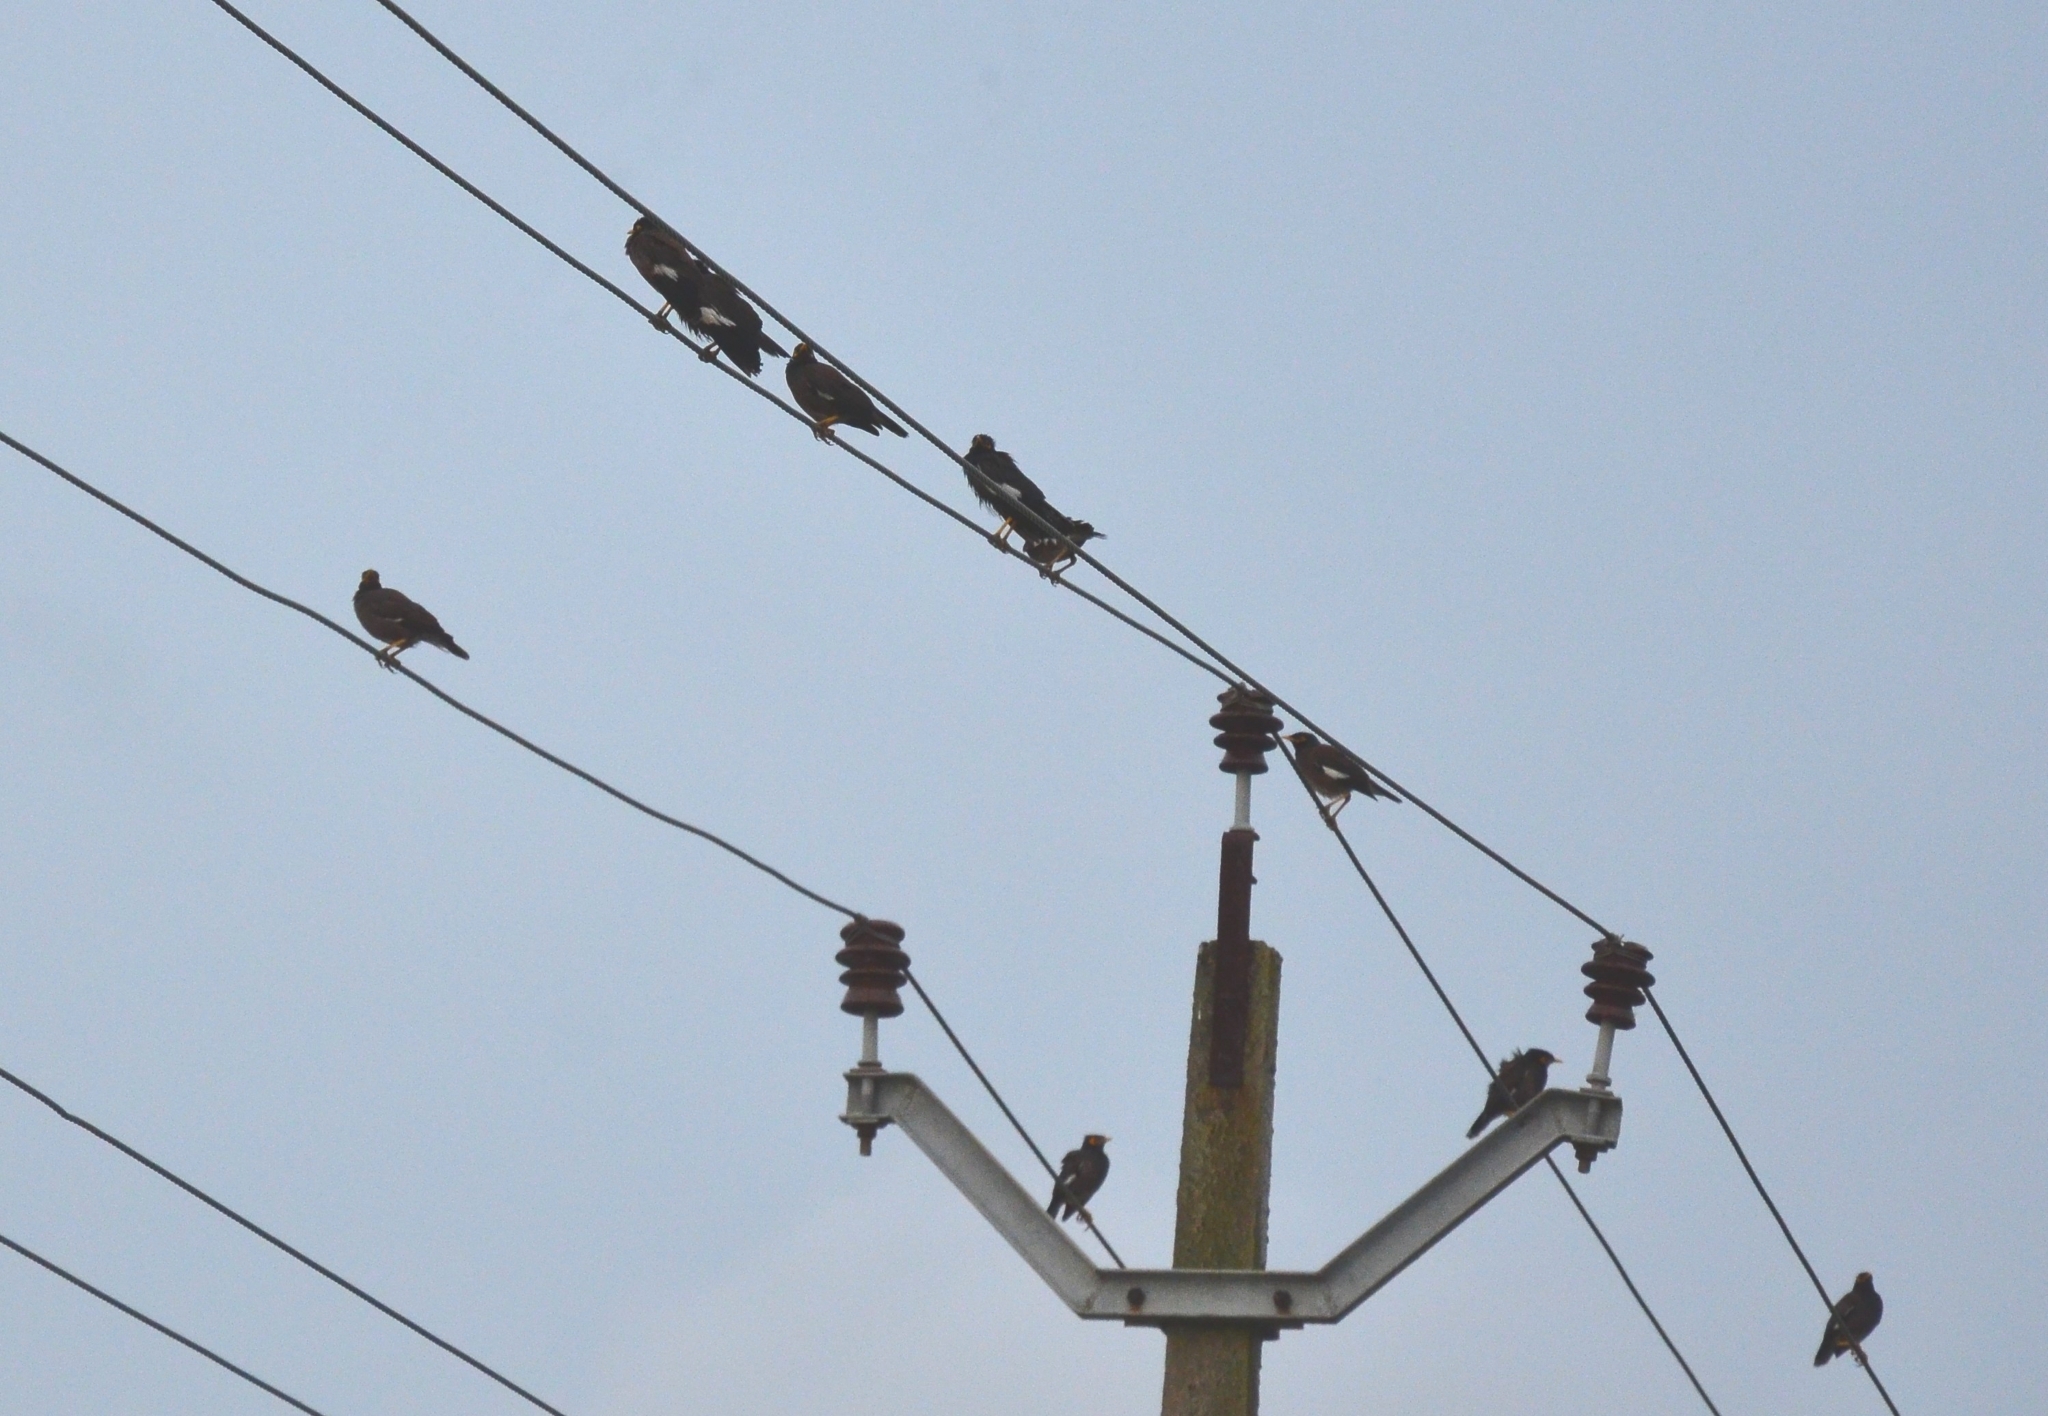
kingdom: Animalia
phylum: Chordata
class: Aves
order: Passeriformes
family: Sturnidae
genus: Acridotheres
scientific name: Acridotheres tristis
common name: Common myna
